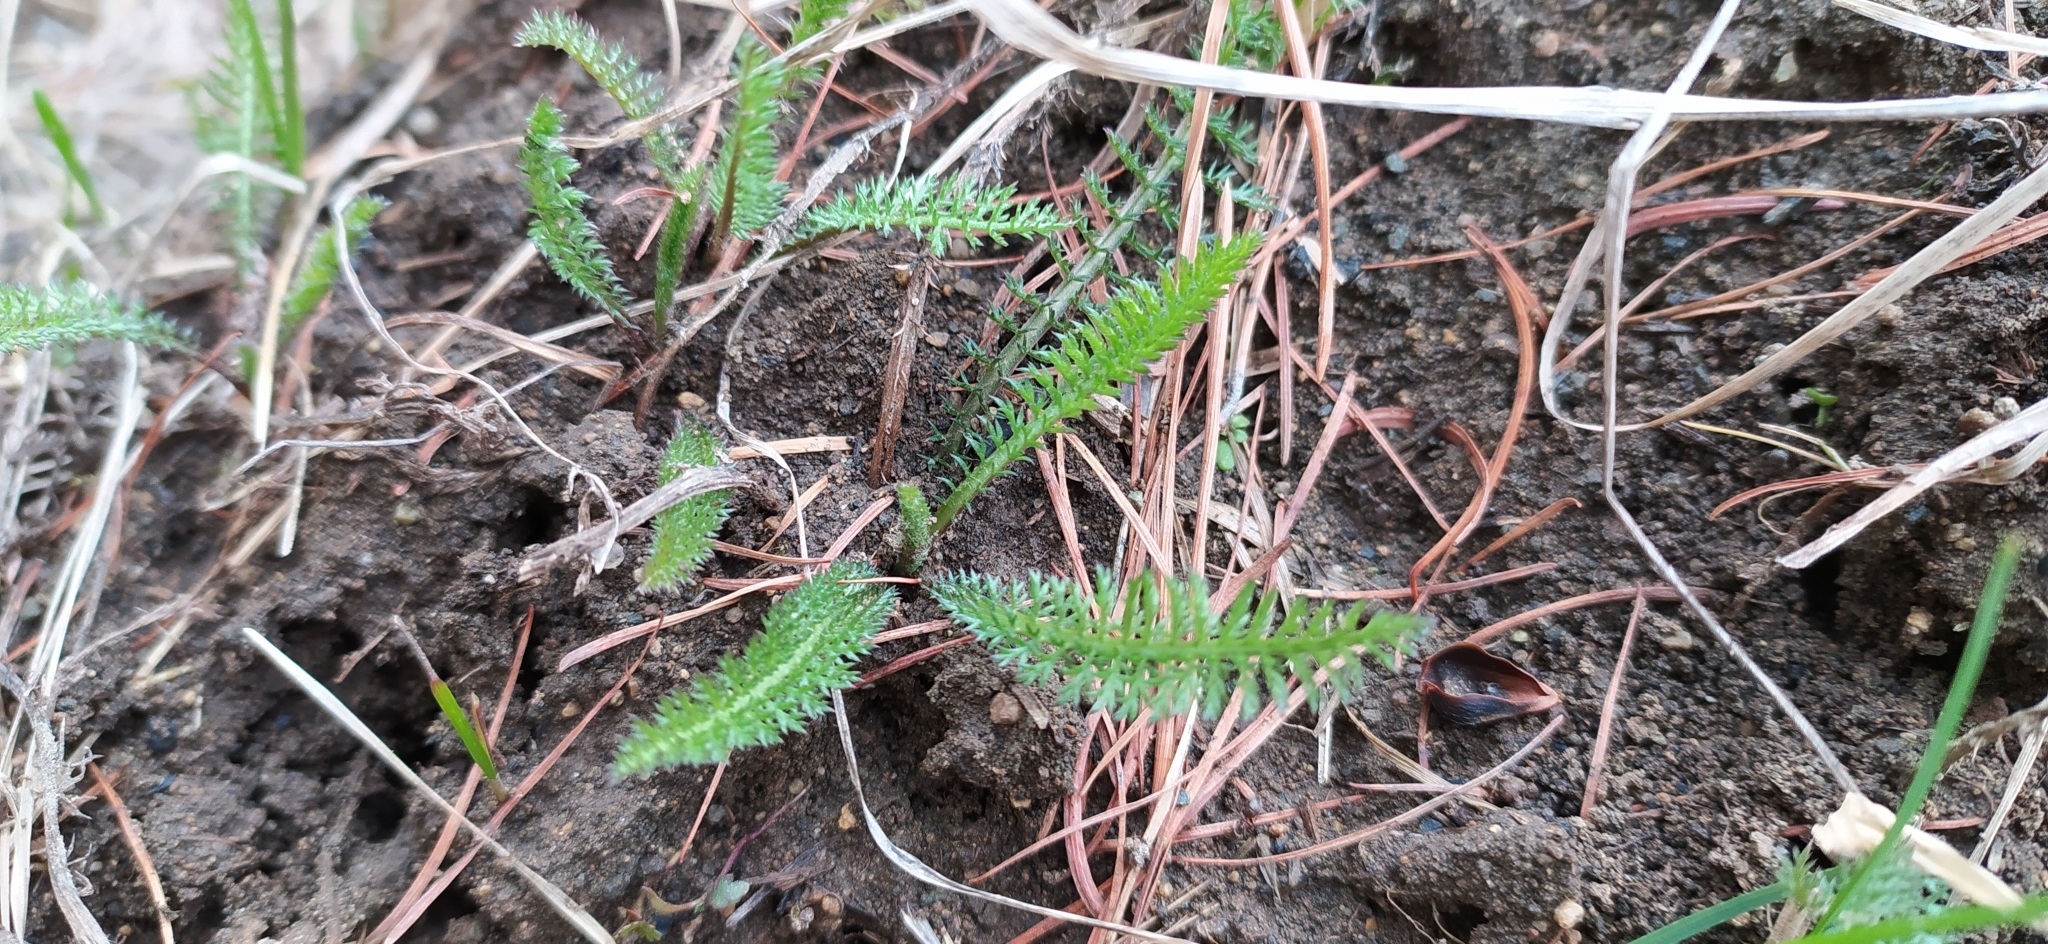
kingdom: Plantae
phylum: Tracheophyta
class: Magnoliopsida
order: Asterales
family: Asteraceae
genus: Achillea
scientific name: Achillea millefolium
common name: Yarrow
